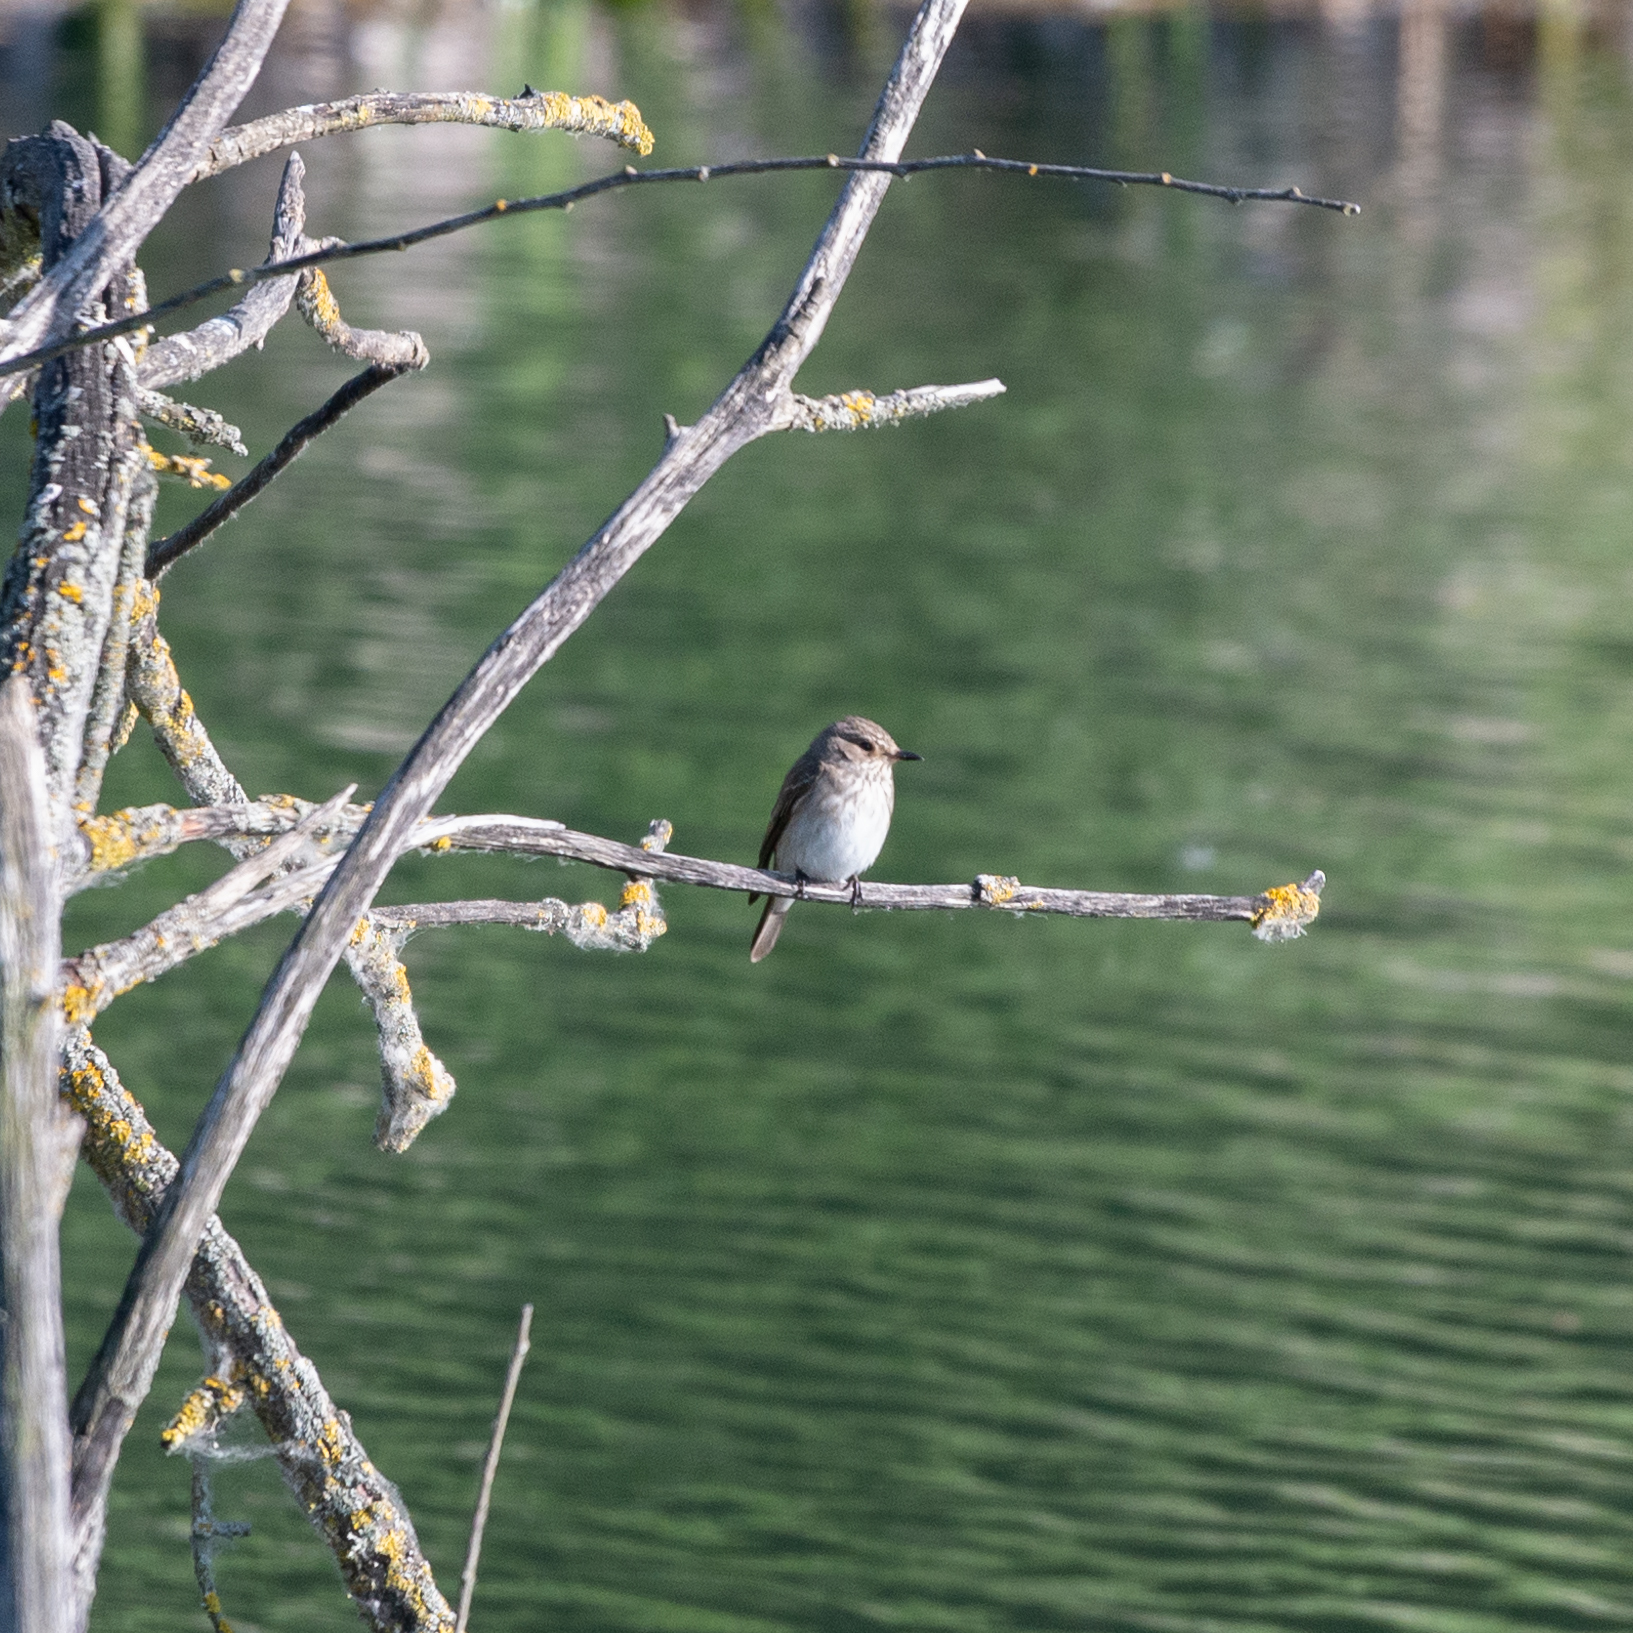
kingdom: Animalia
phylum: Chordata
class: Aves
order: Passeriformes
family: Muscicapidae
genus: Muscicapa
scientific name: Muscicapa striata
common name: Spotted flycatcher
